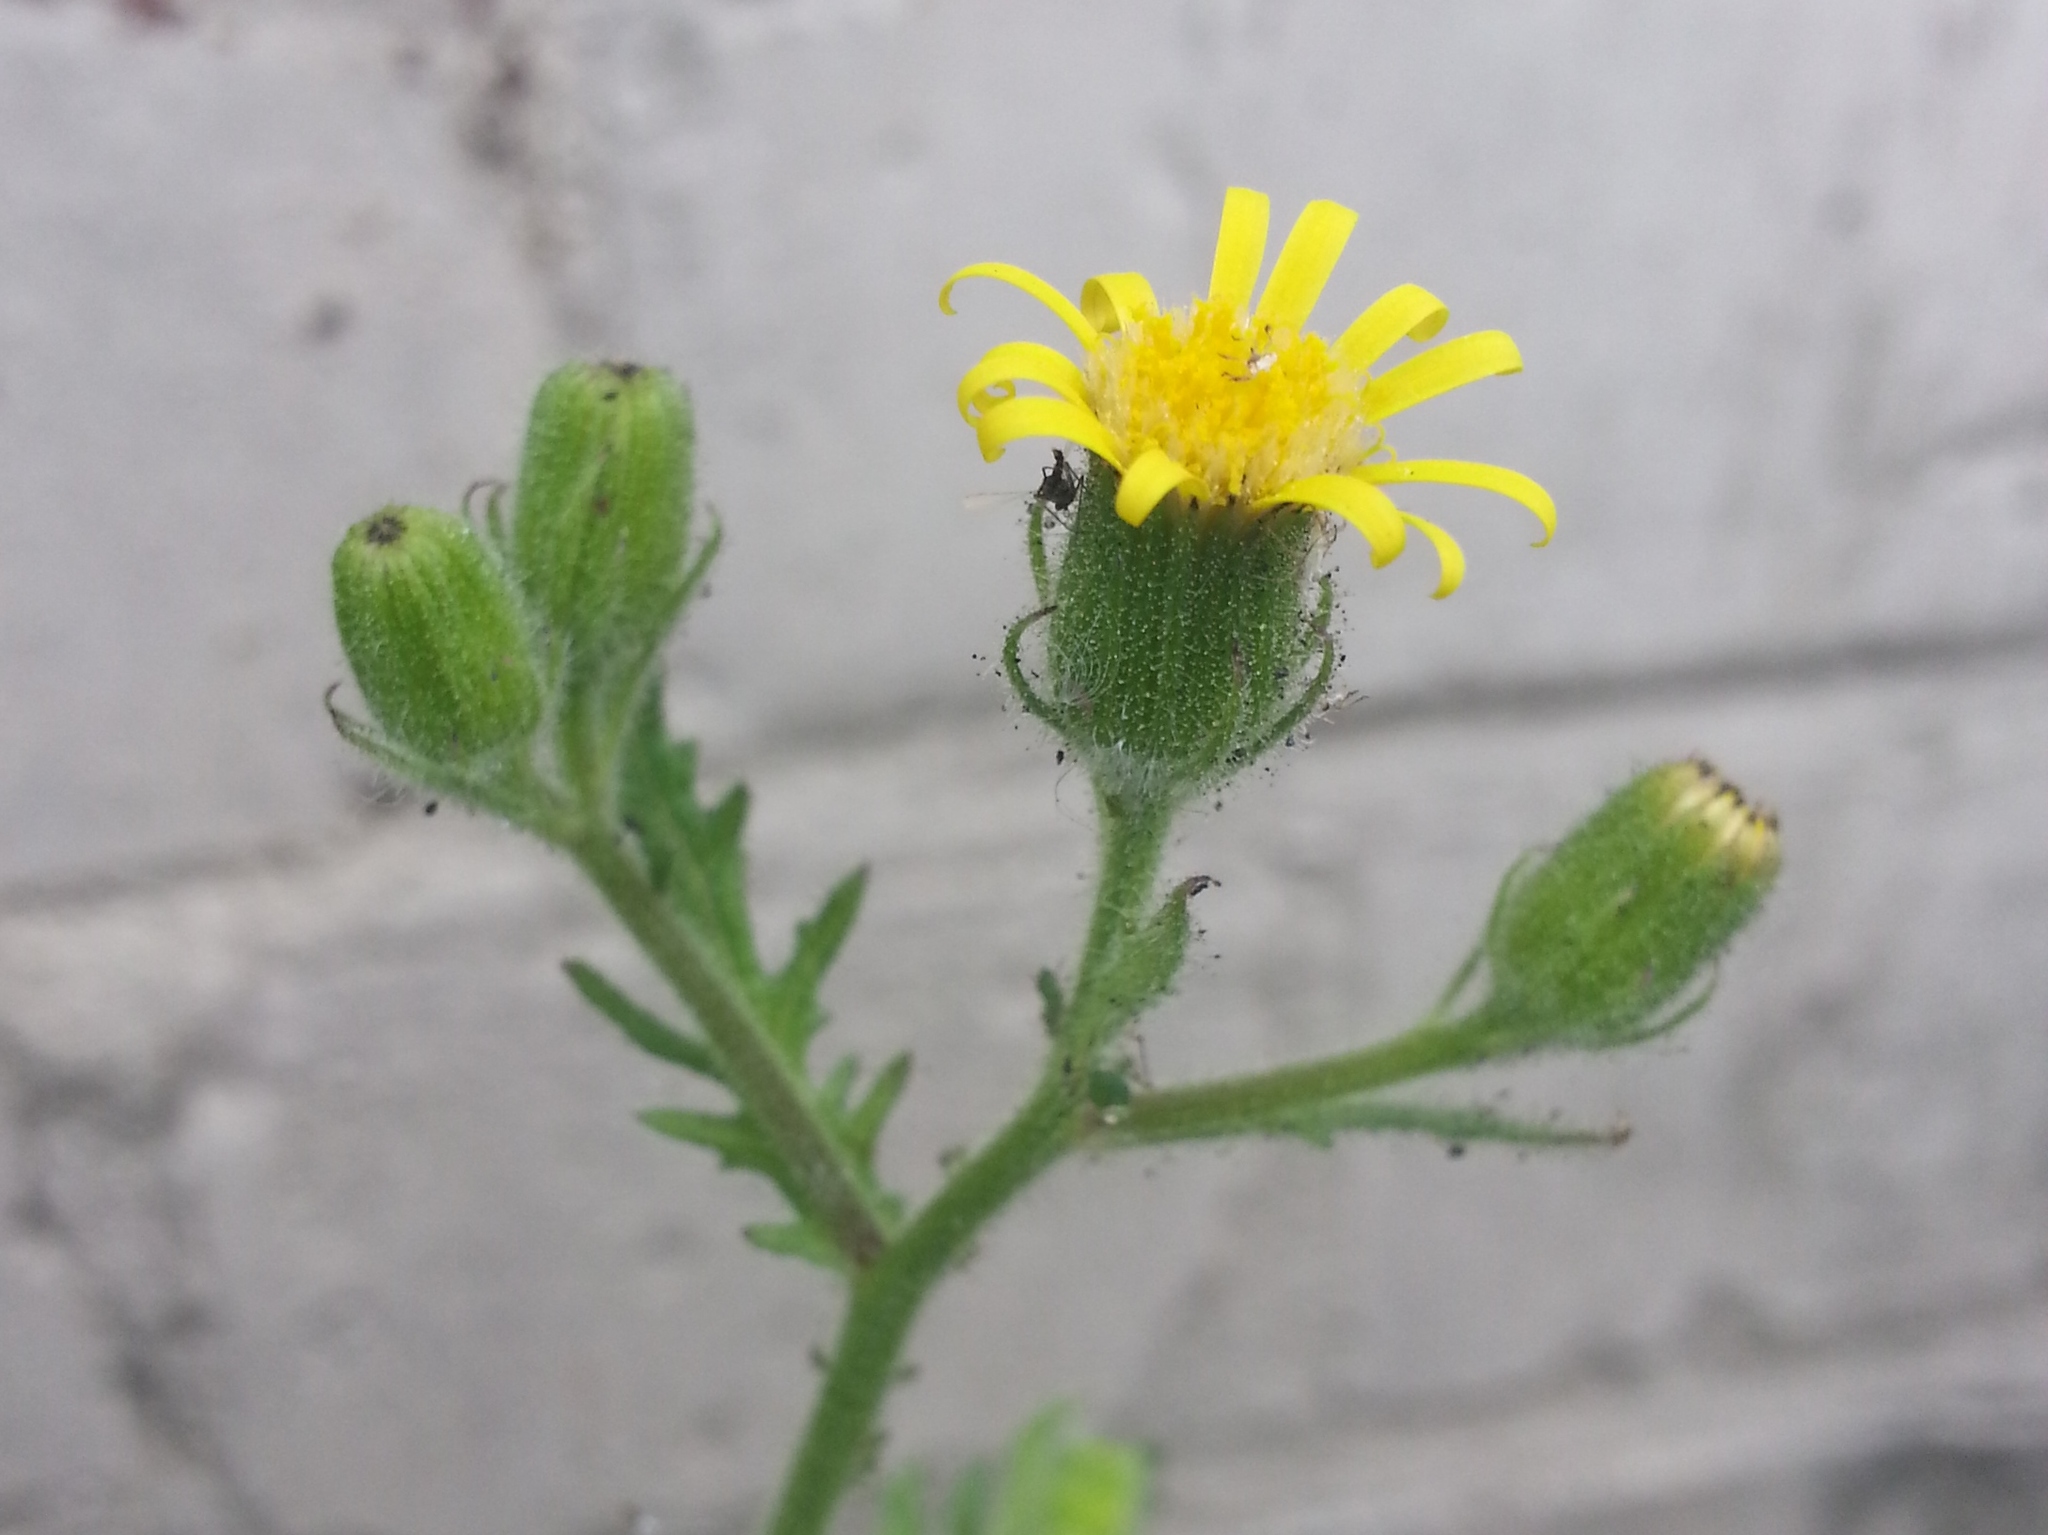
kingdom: Plantae
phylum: Tracheophyta
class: Magnoliopsida
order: Asterales
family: Asteraceae
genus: Senecio
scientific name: Senecio viscosus
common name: Sticky groundsel
